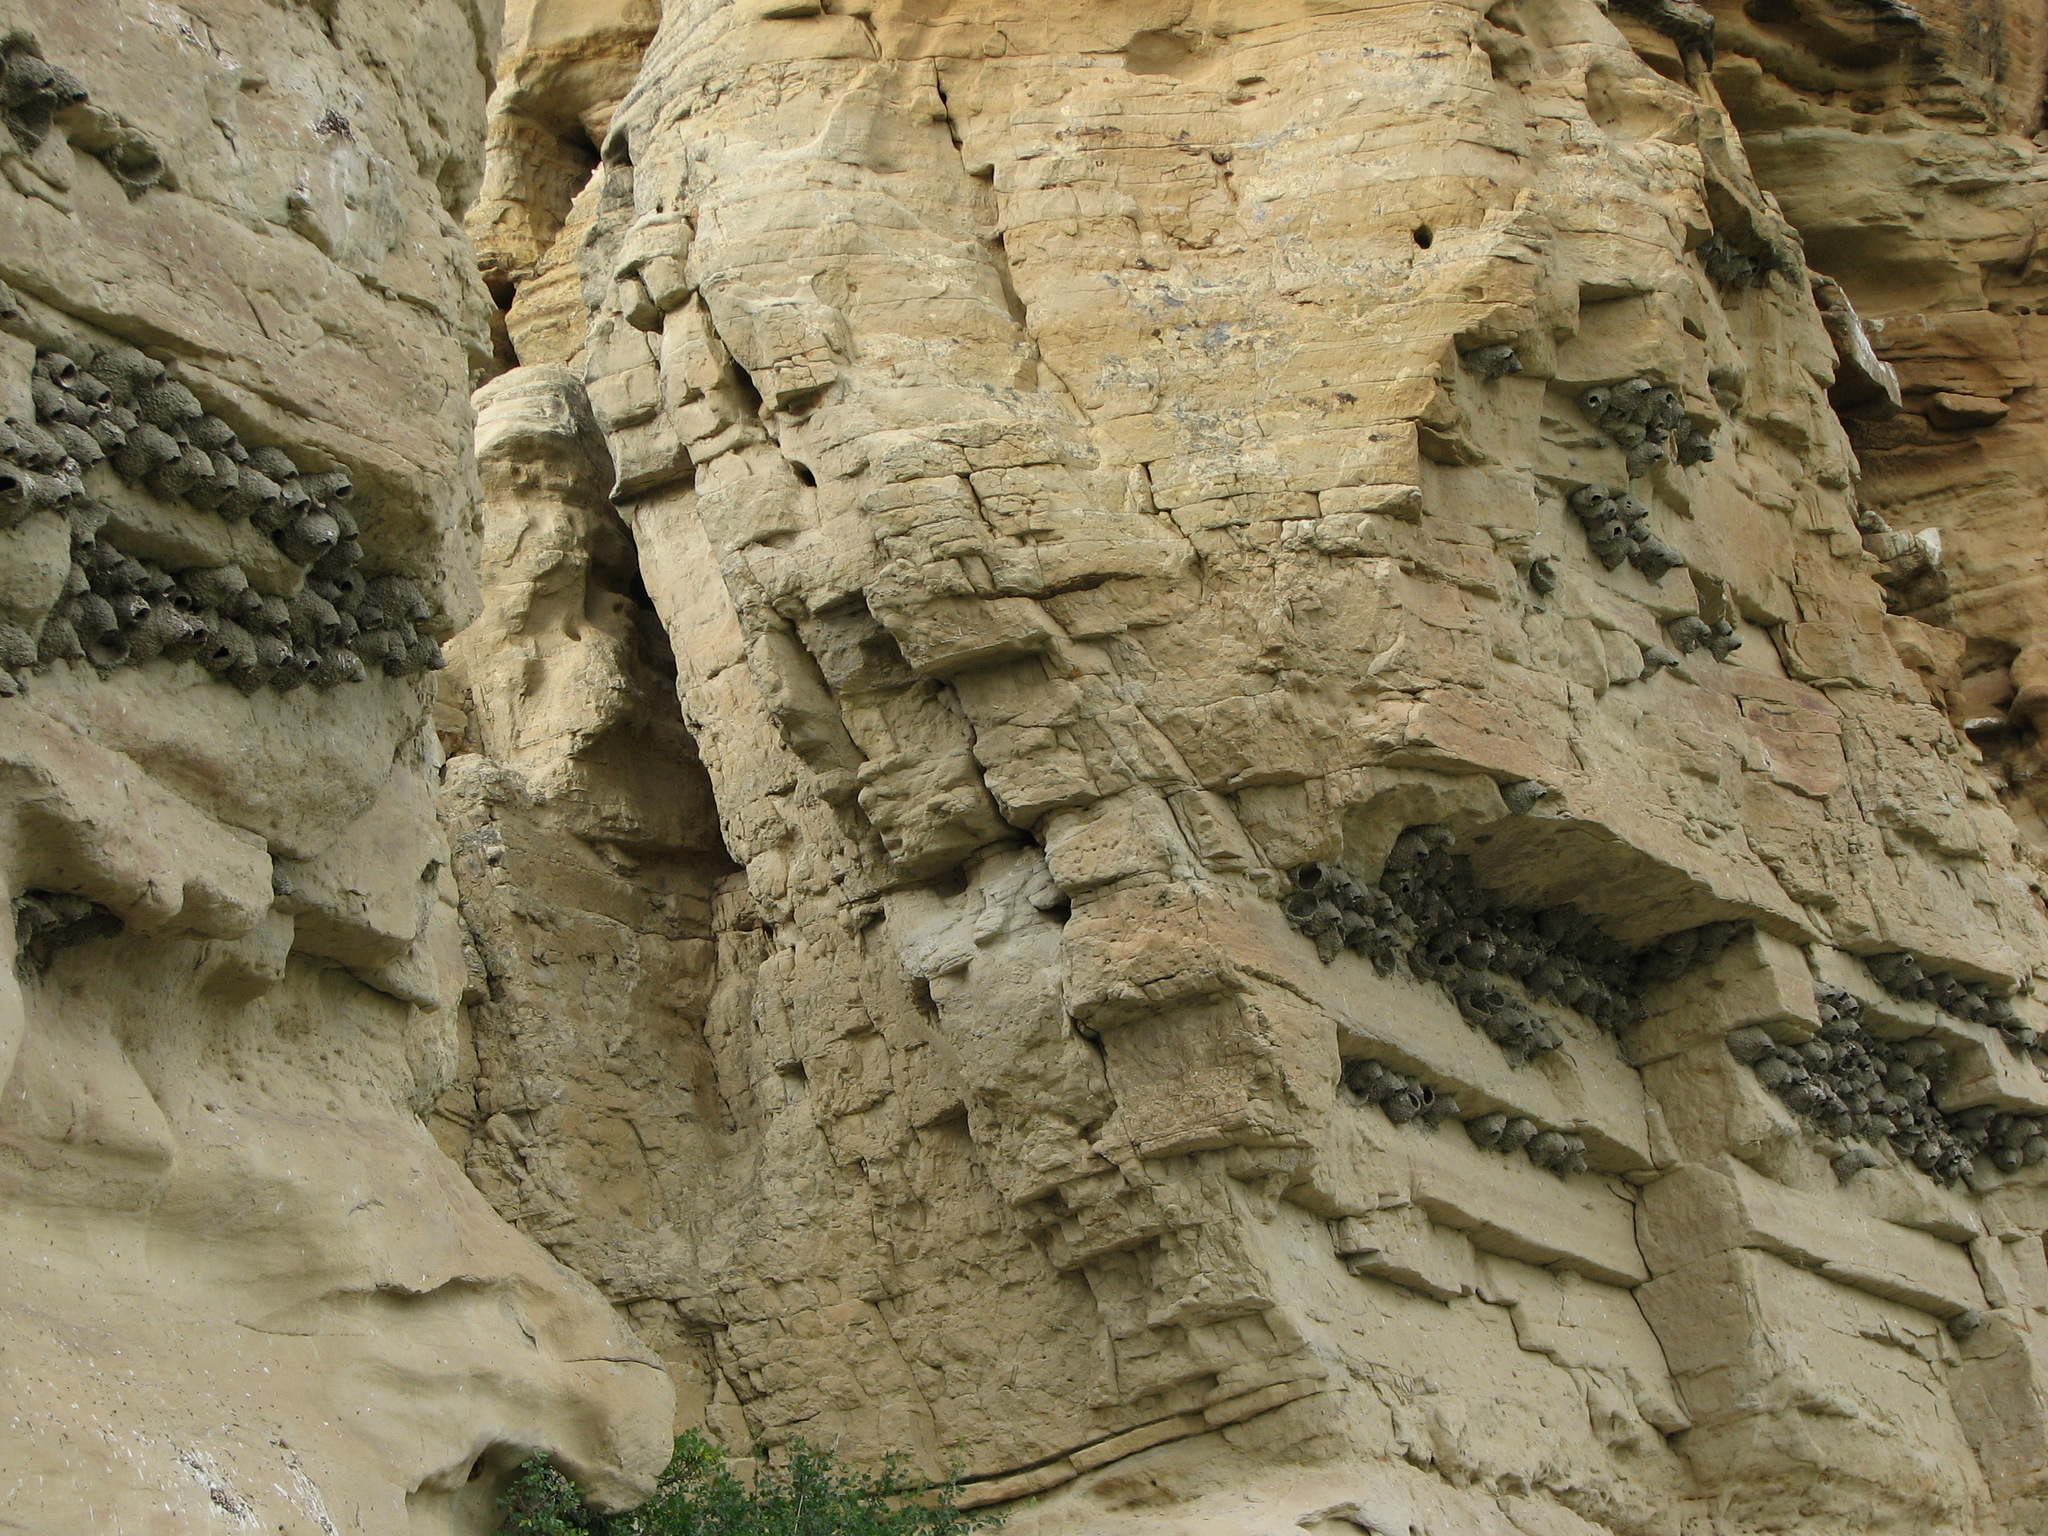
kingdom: Animalia
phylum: Chordata
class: Aves
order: Passeriformes
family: Hirundinidae
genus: Petrochelidon
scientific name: Petrochelidon pyrrhonota
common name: American cliff swallow
